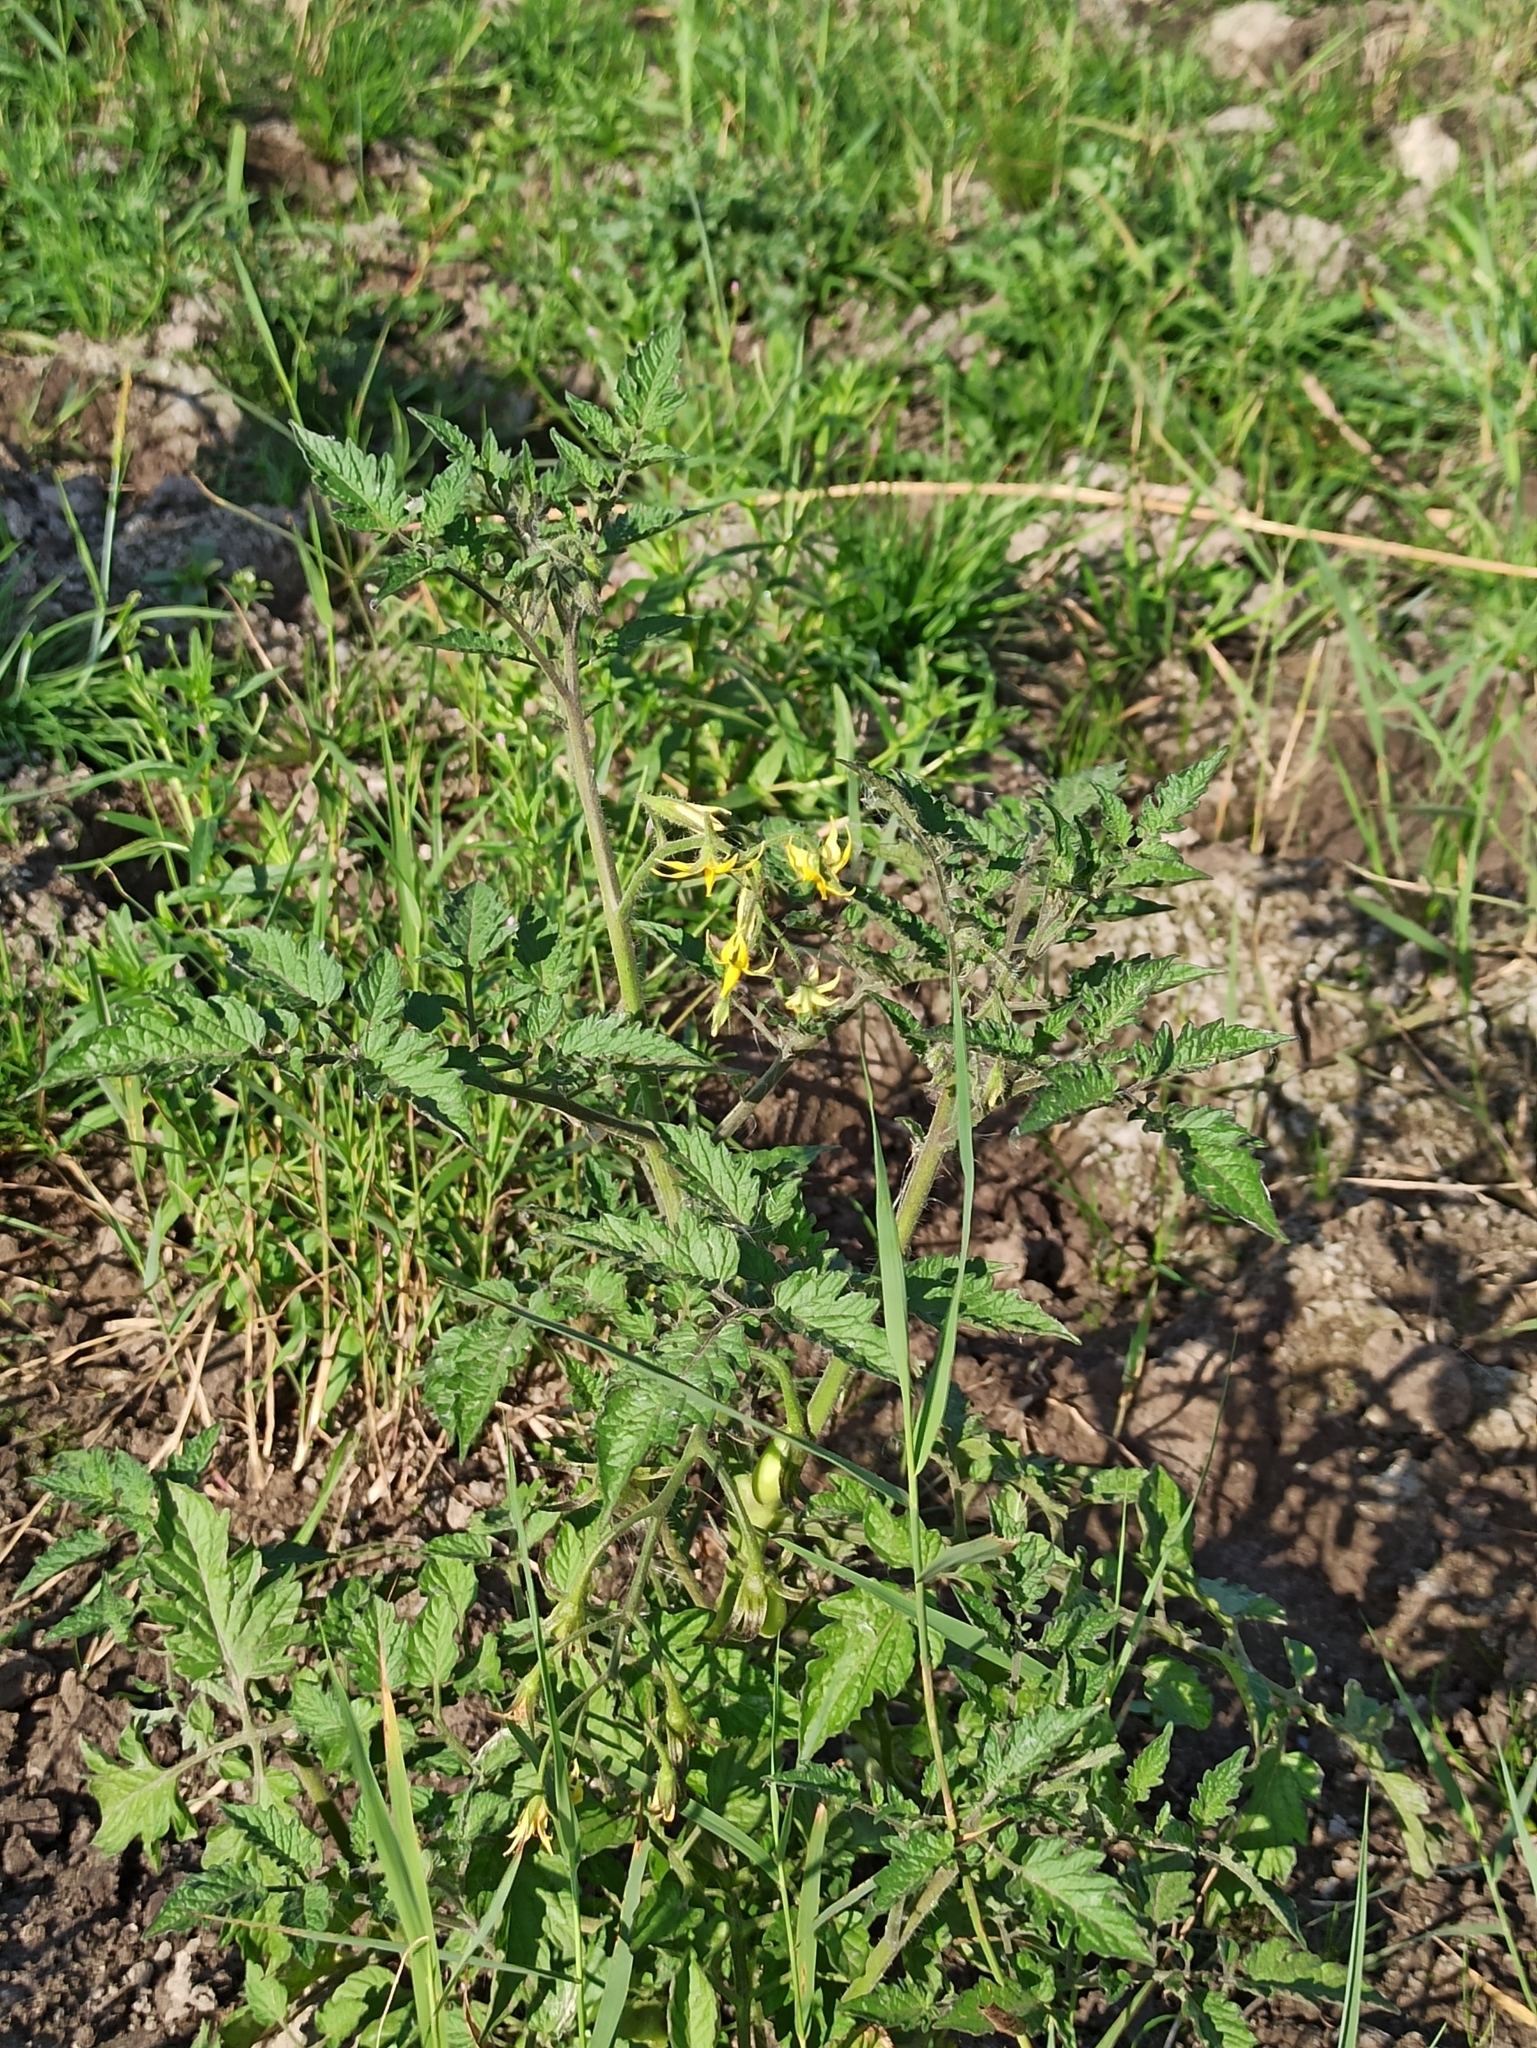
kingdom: Plantae
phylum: Tracheophyta
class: Magnoliopsida
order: Solanales
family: Solanaceae
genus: Solanum
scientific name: Solanum lycopersicum
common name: Garden tomato
